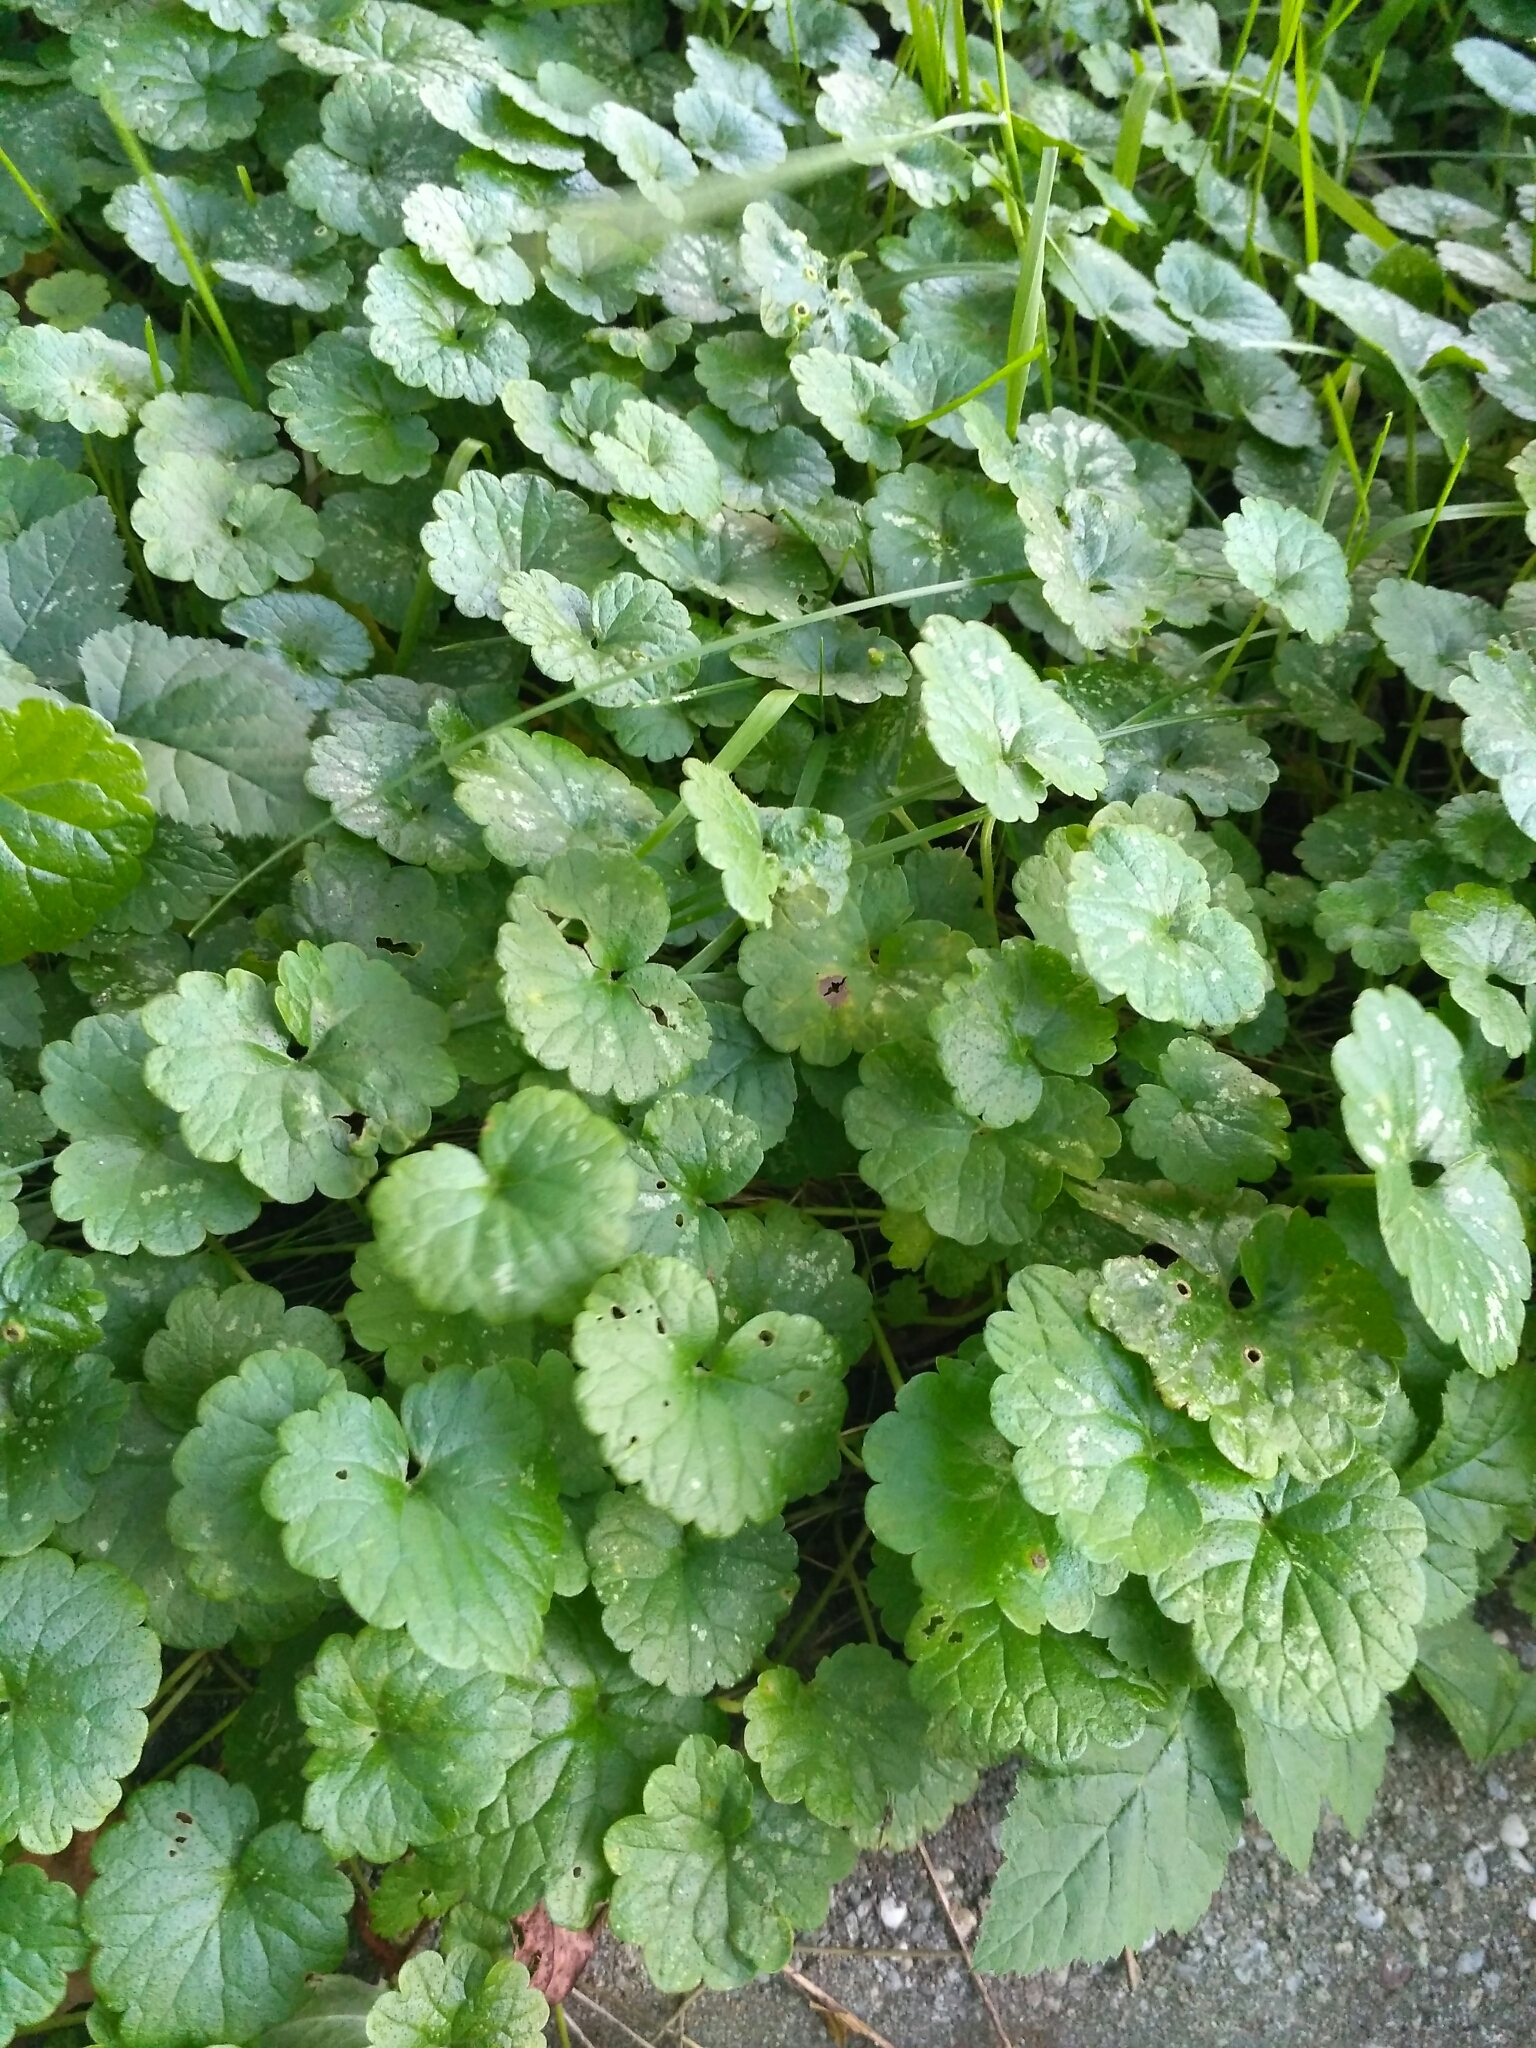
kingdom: Plantae
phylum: Tracheophyta
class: Magnoliopsida
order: Lamiales
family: Lamiaceae
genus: Glechoma
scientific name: Glechoma hederacea
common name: Ground ivy
